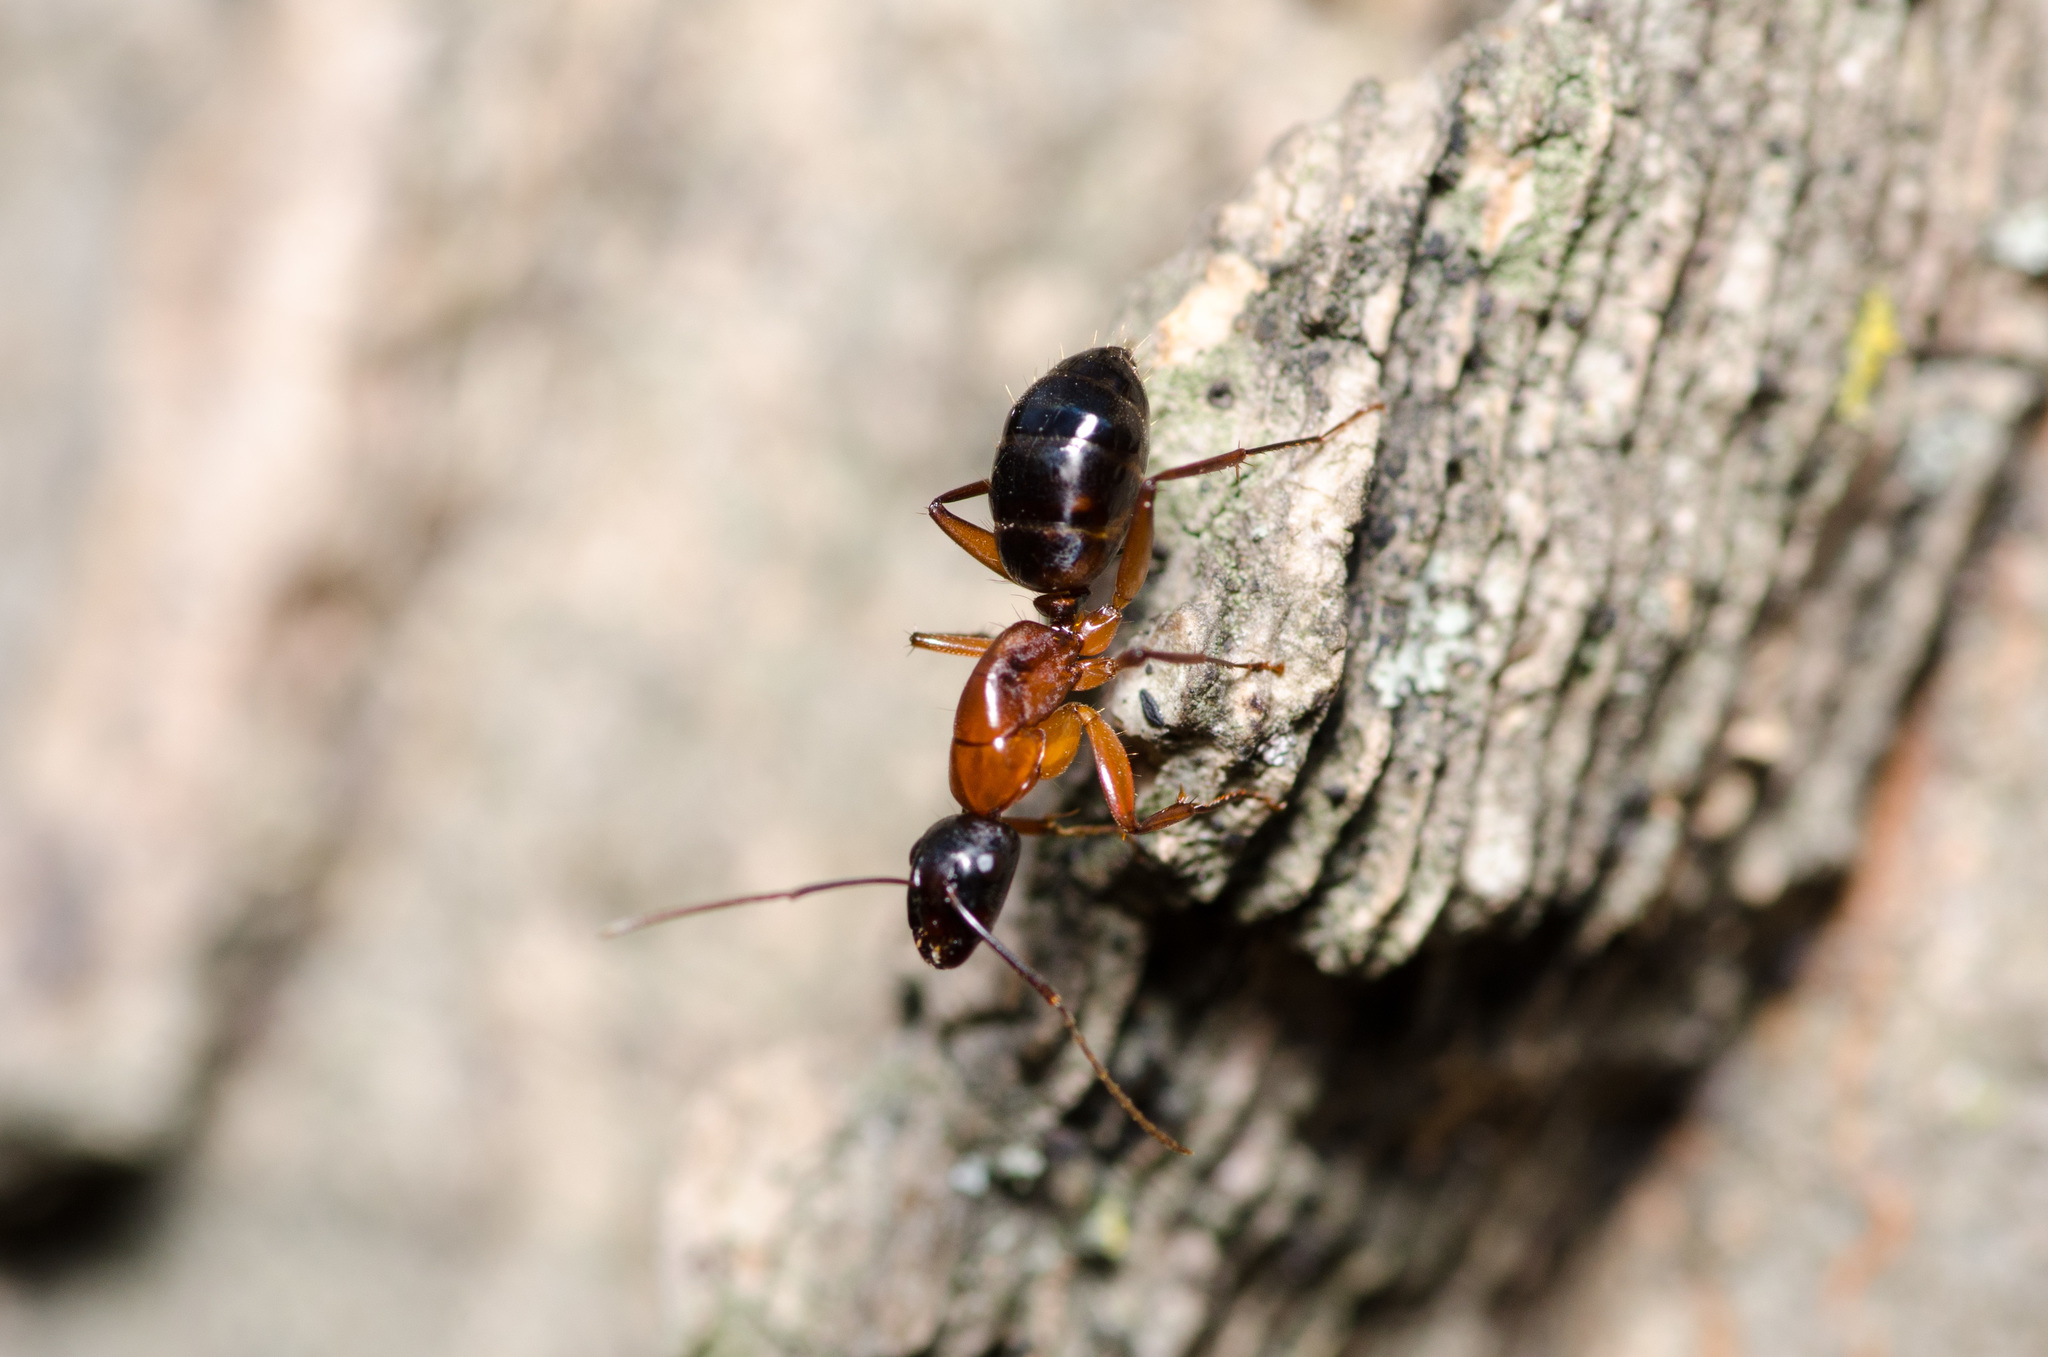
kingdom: Animalia
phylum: Arthropoda
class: Insecta
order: Hymenoptera
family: Formicidae
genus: Camponotus
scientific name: Camponotus texanus
